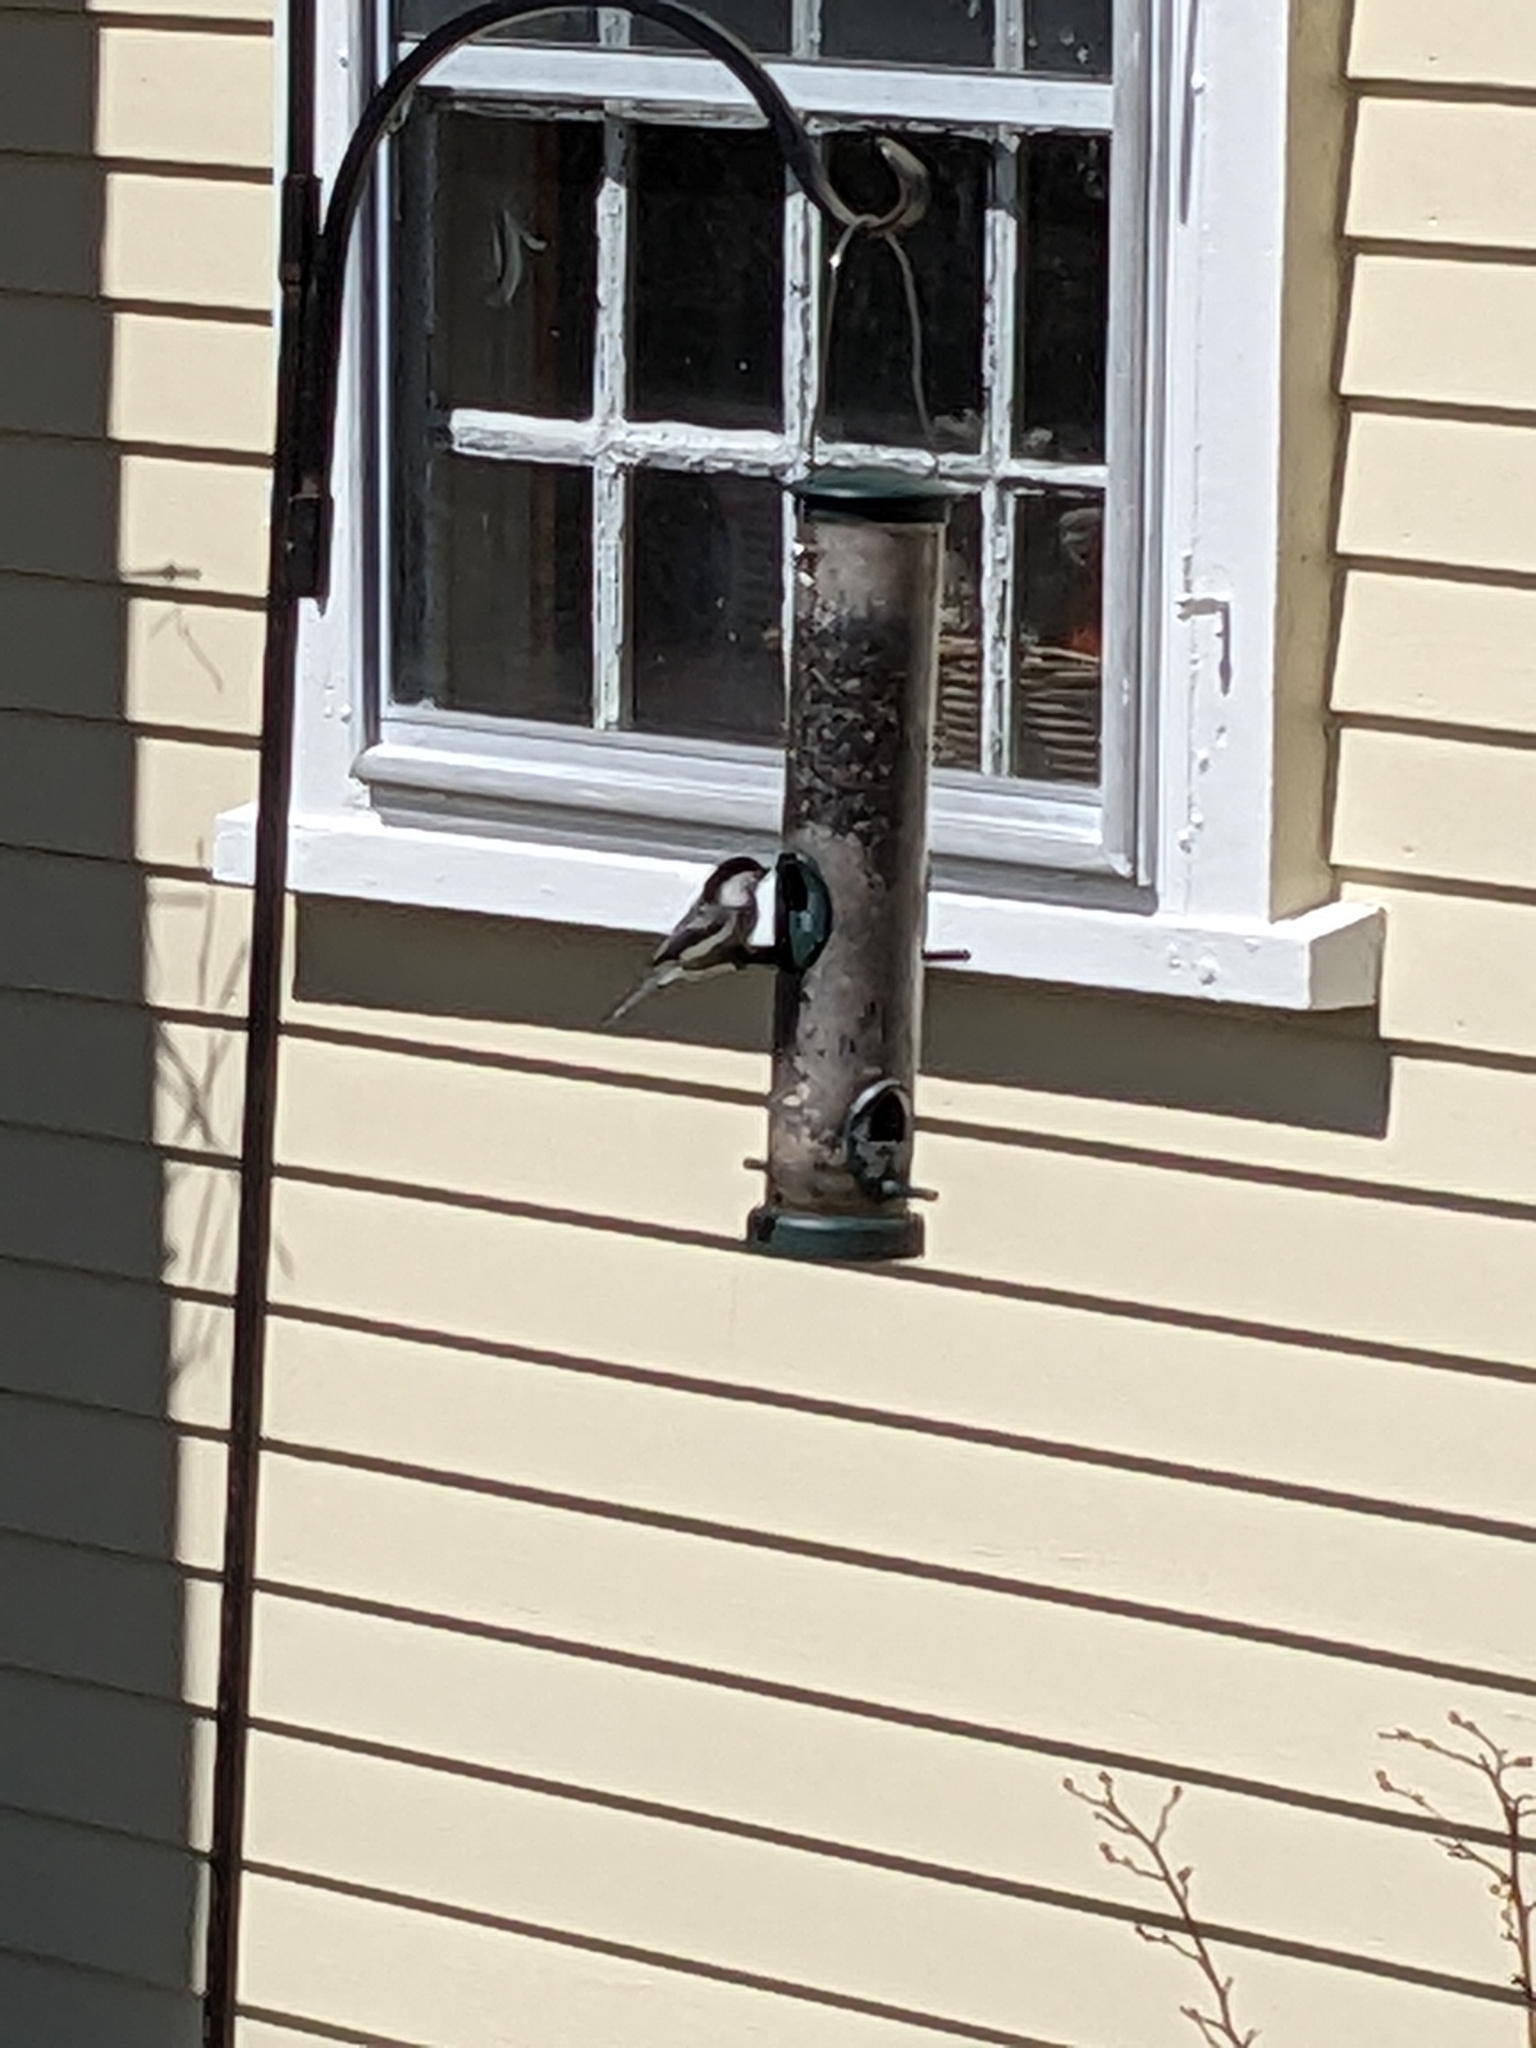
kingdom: Animalia
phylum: Chordata
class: Aves
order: Passeriformes
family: Paridae
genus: Poecile
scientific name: Poecile atricapillus
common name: Black-capped chickadee
